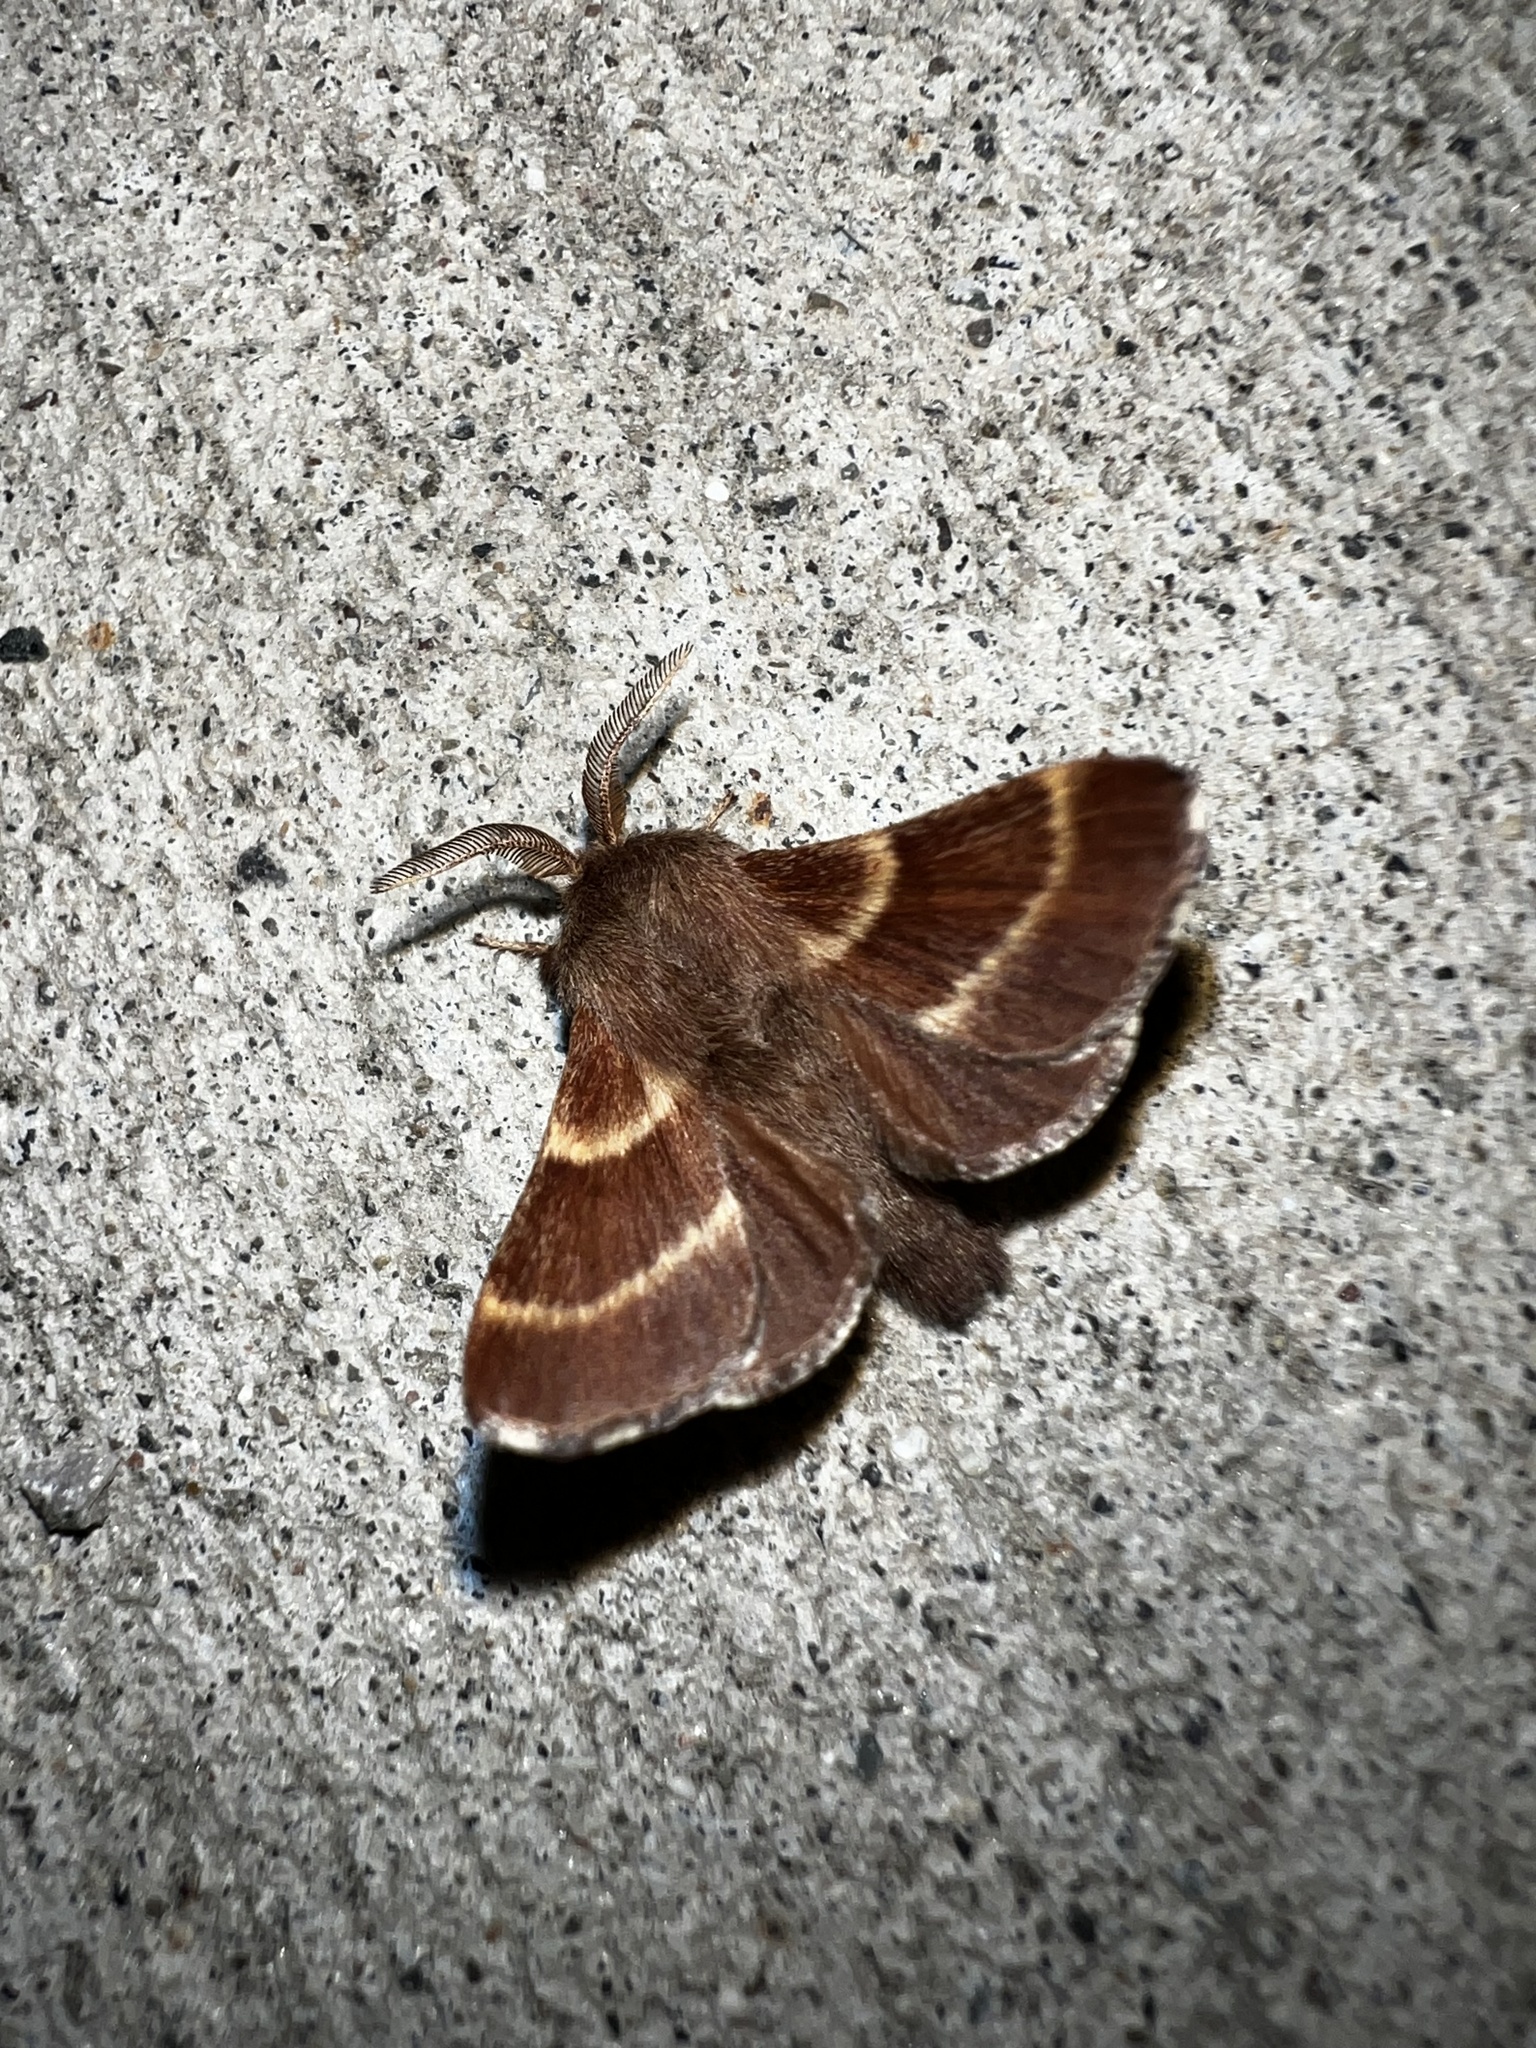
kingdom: Animalia
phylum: Arthropoda
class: Insecta
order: Lepidoptera
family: Lasiocampidae
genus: Malacosoma
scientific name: Malacosoma californica
